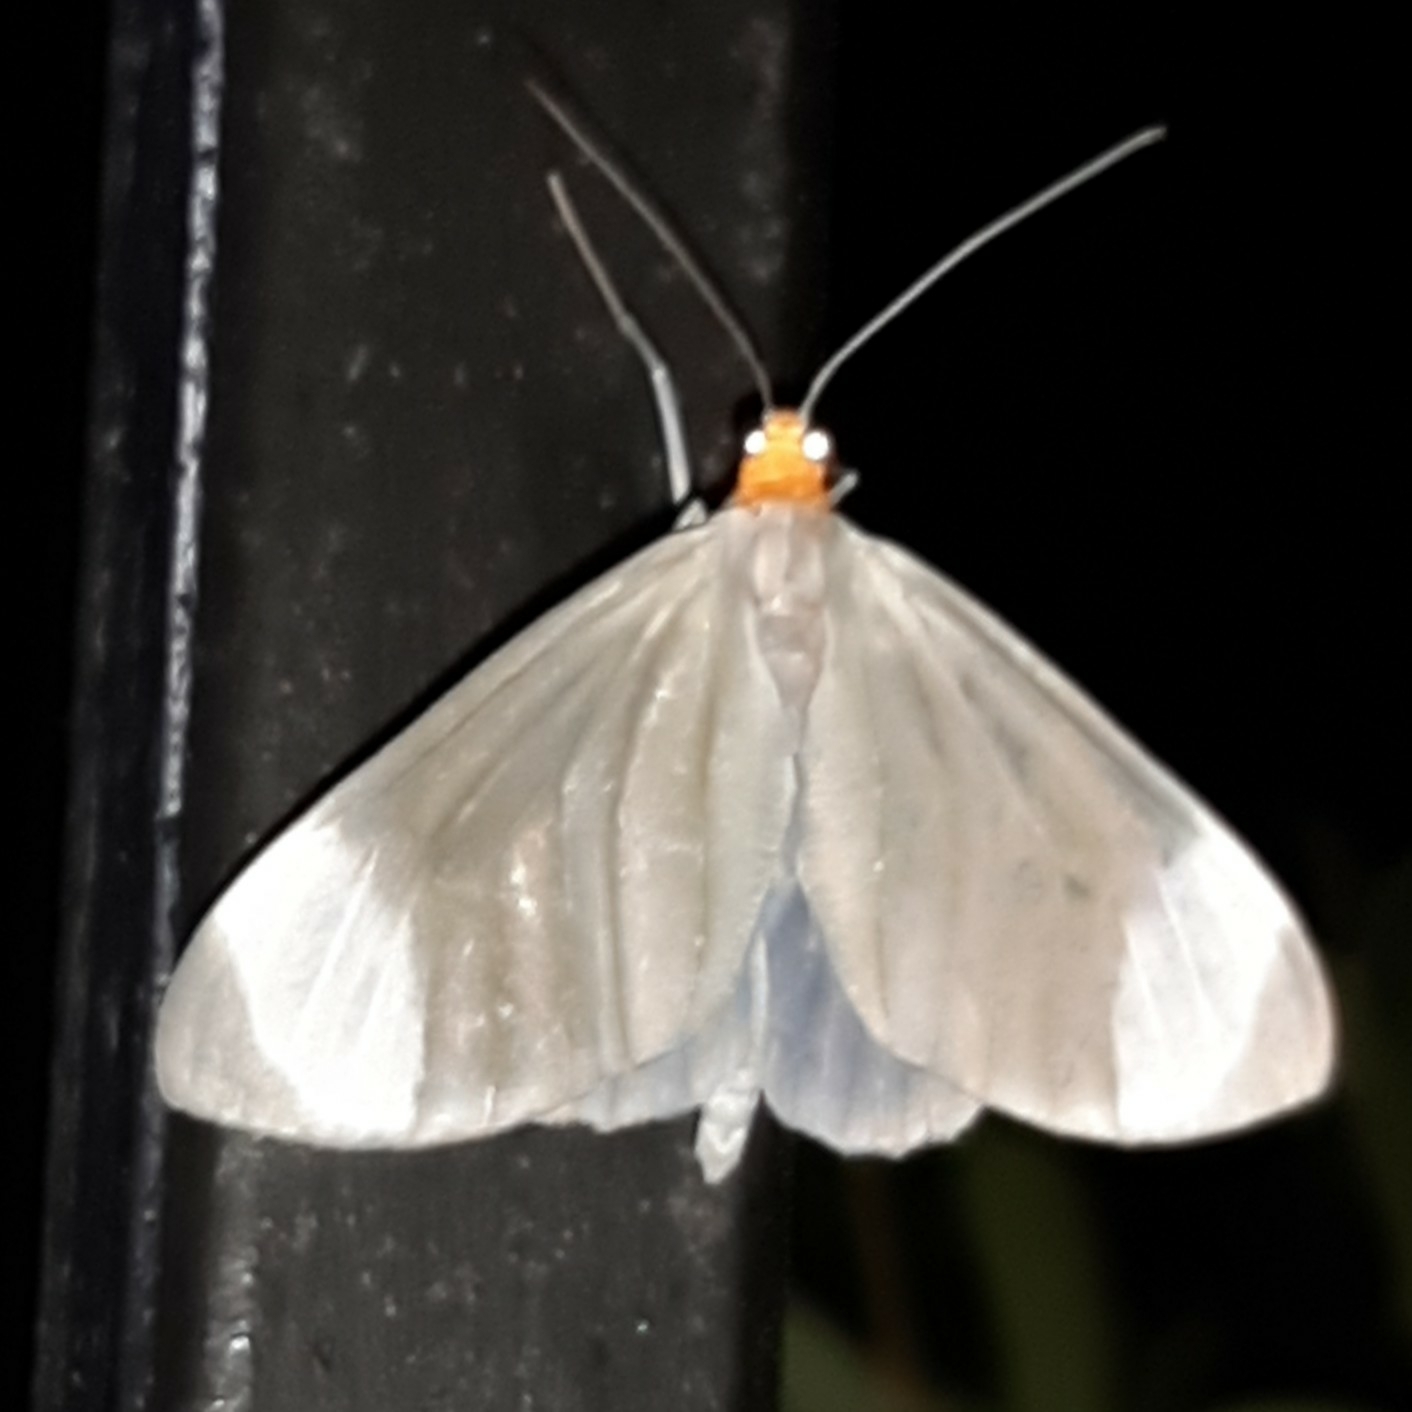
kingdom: Animalia
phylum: Arthropoda
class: Insecta
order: Lepidoptera
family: Geometridae
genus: Crocypus
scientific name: Crocypus perlucidaria
